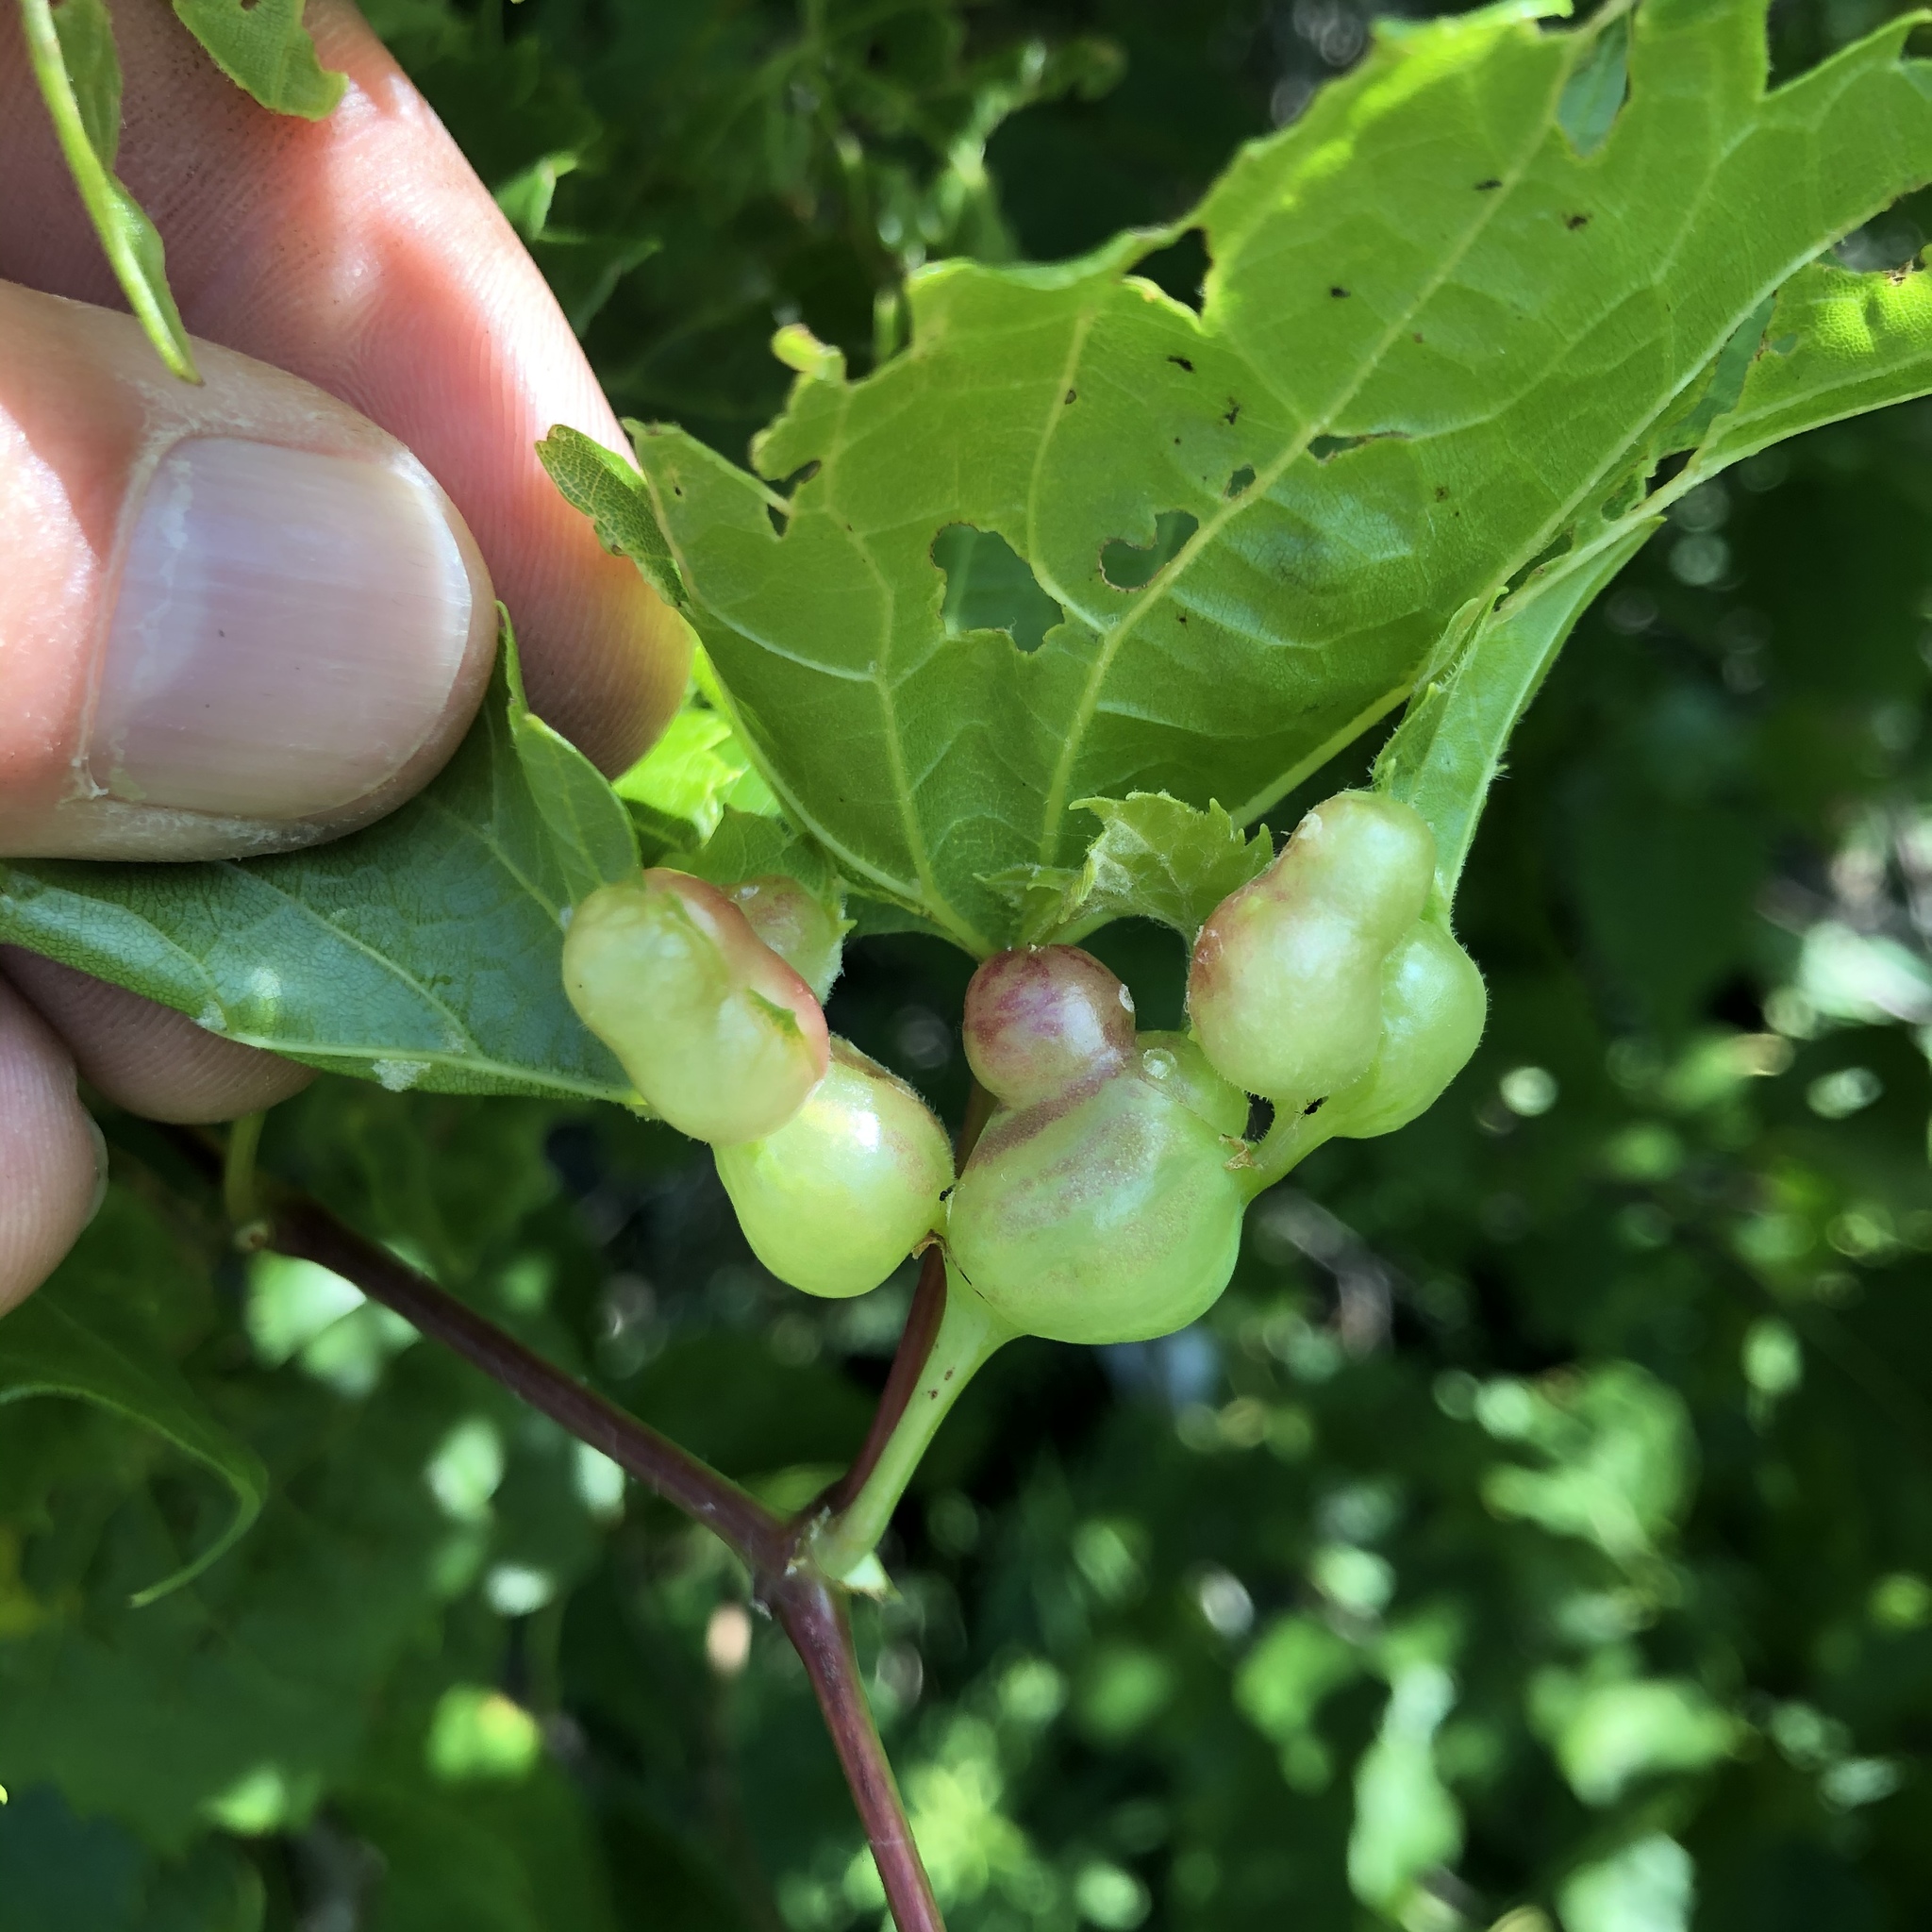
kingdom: Animalia
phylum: Arthropoda
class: Insecta
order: Diptera
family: Cecidomyiidae
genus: Vitisiella
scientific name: Vitisiella brevicauda
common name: Grape tumid gallmaker midge
